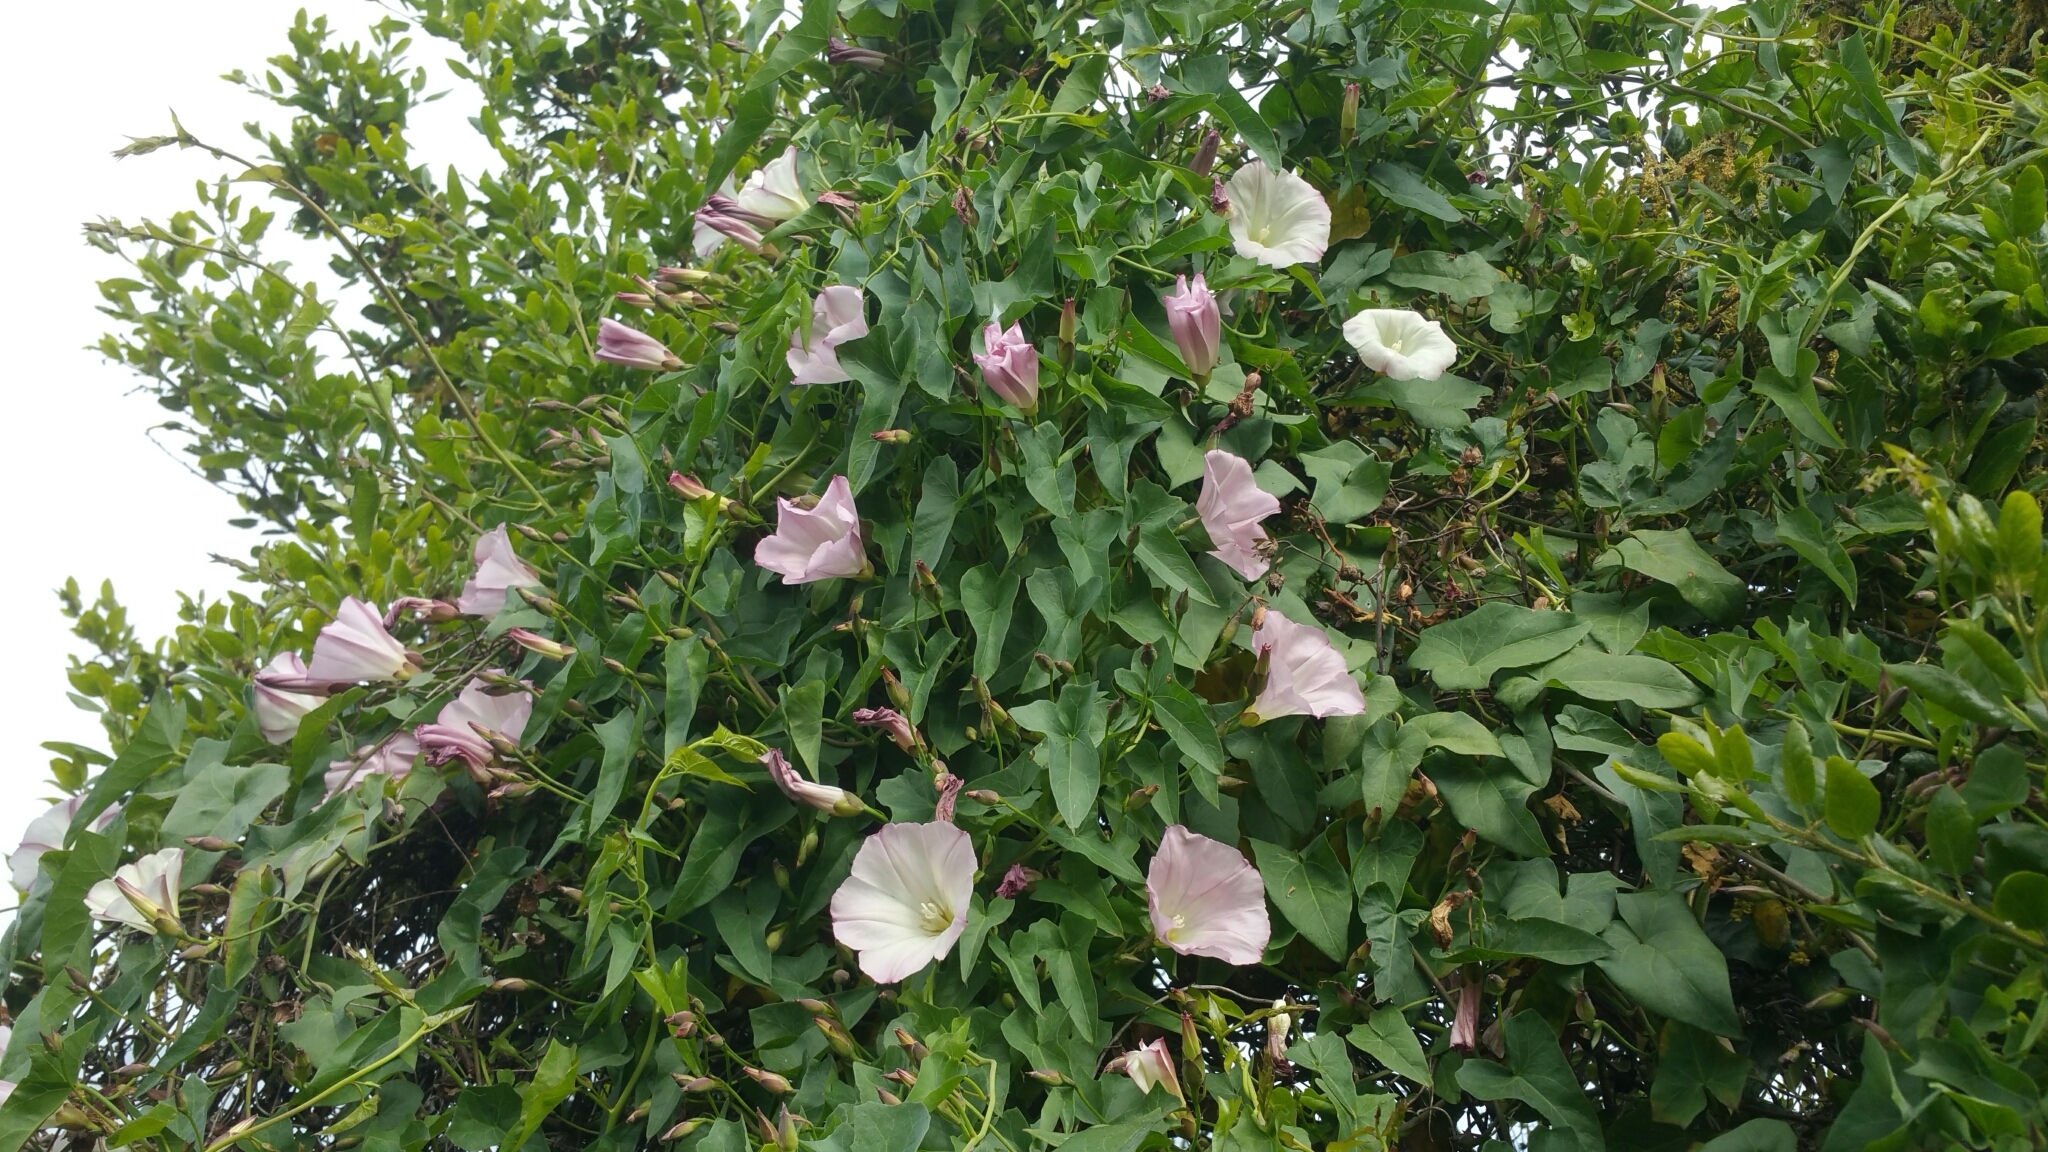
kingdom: Plantae
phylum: Tracheophyta
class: Magnoliopsida
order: Solanales
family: Convolvulaceae
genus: Calystegia
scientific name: Calystegia purpurata
